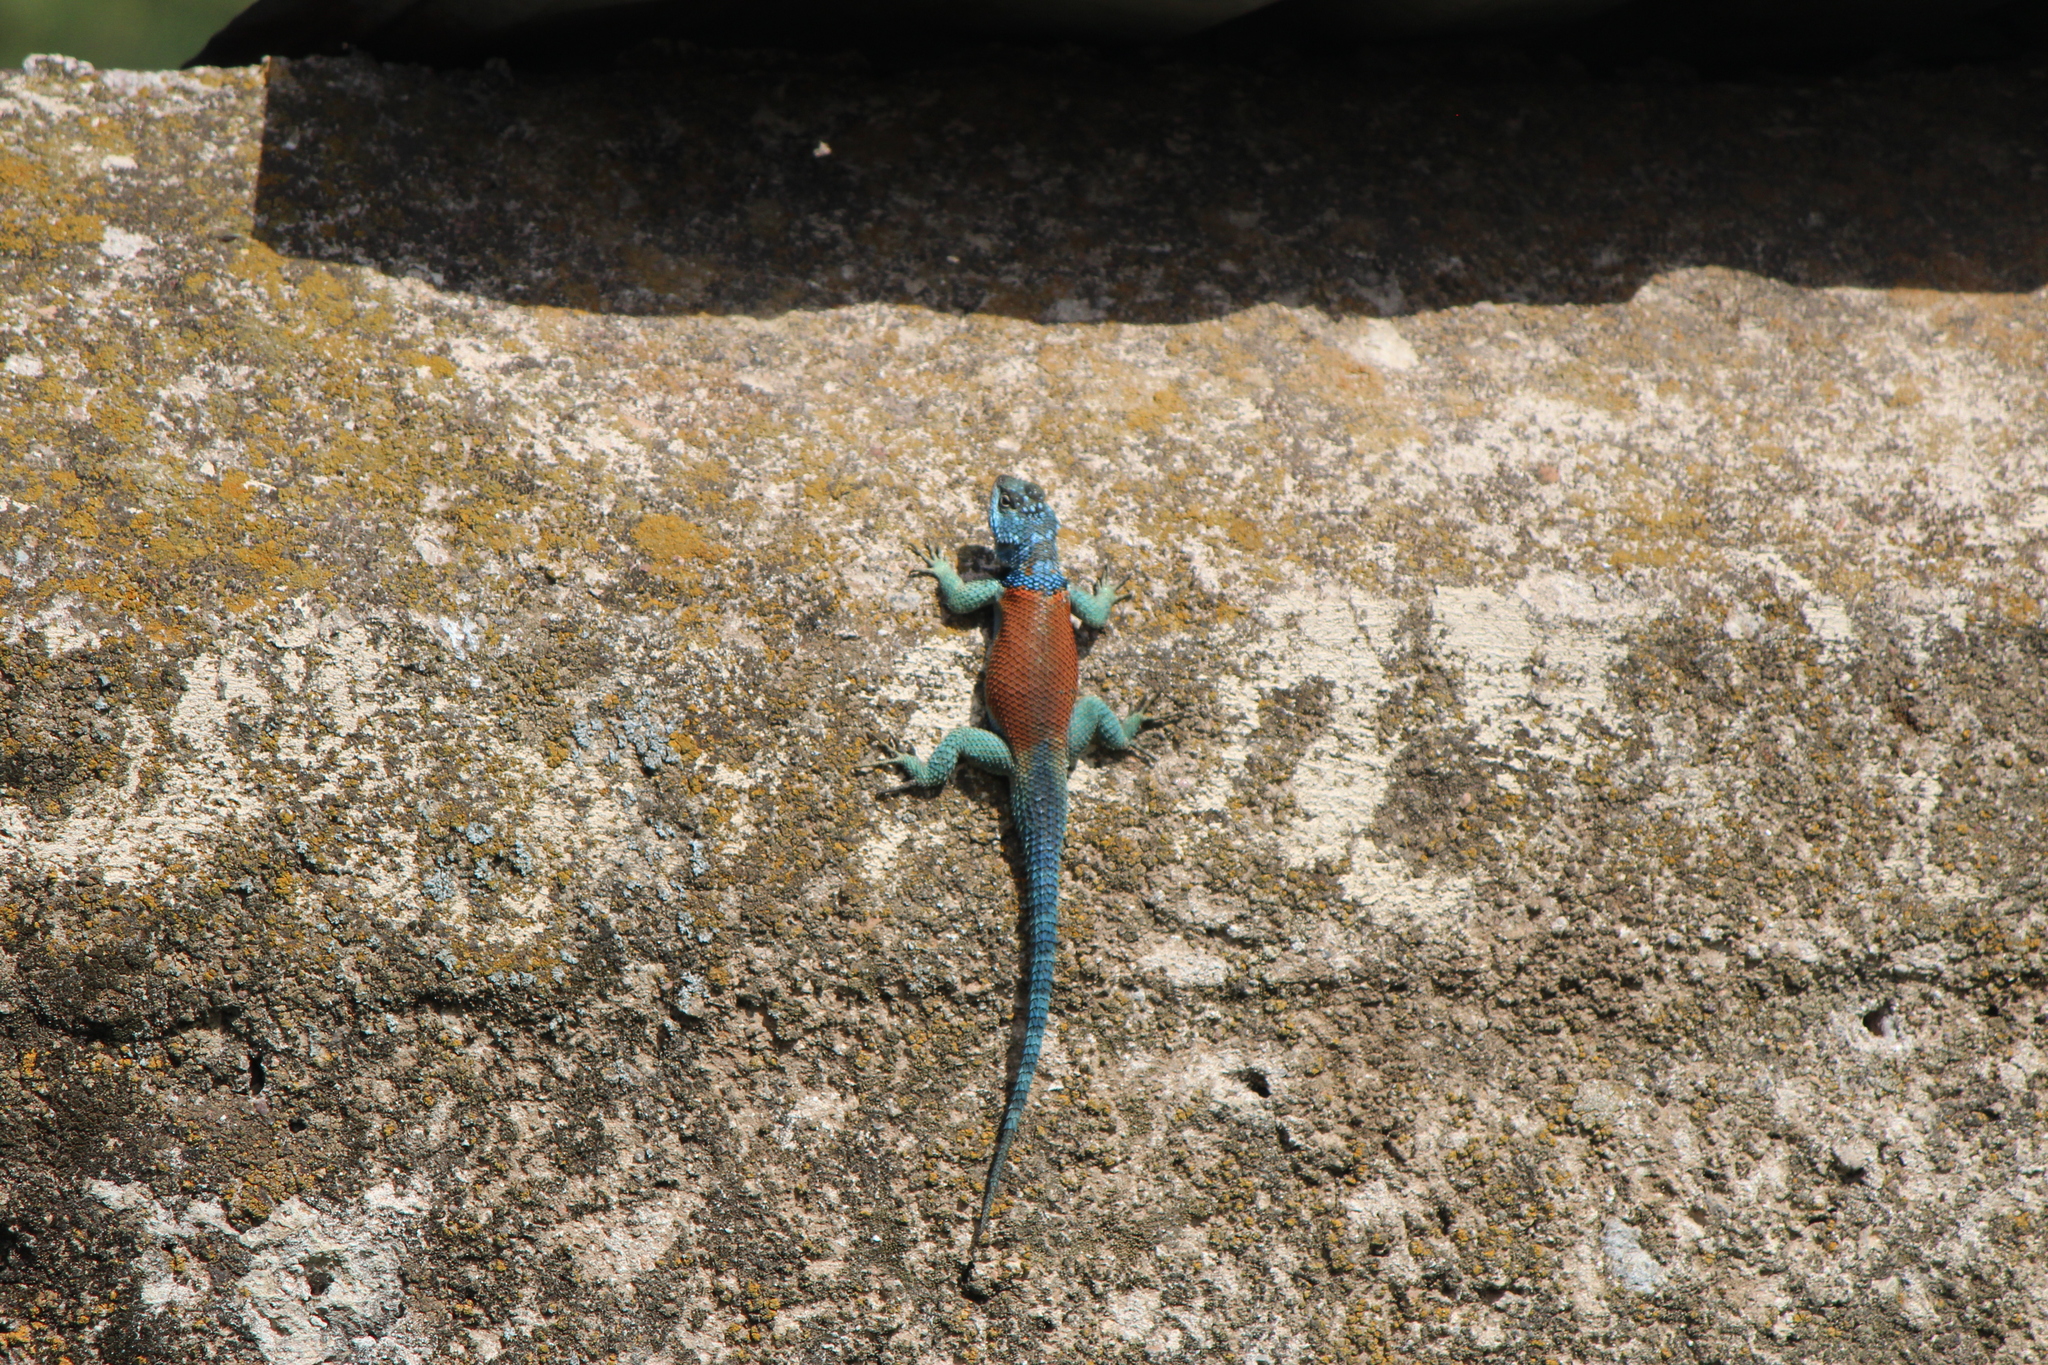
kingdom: Animalia
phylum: Chordata
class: Squamata
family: Phrynosomatidae
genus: Sceloporus
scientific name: Sceloporus minor
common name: Minor lizard
